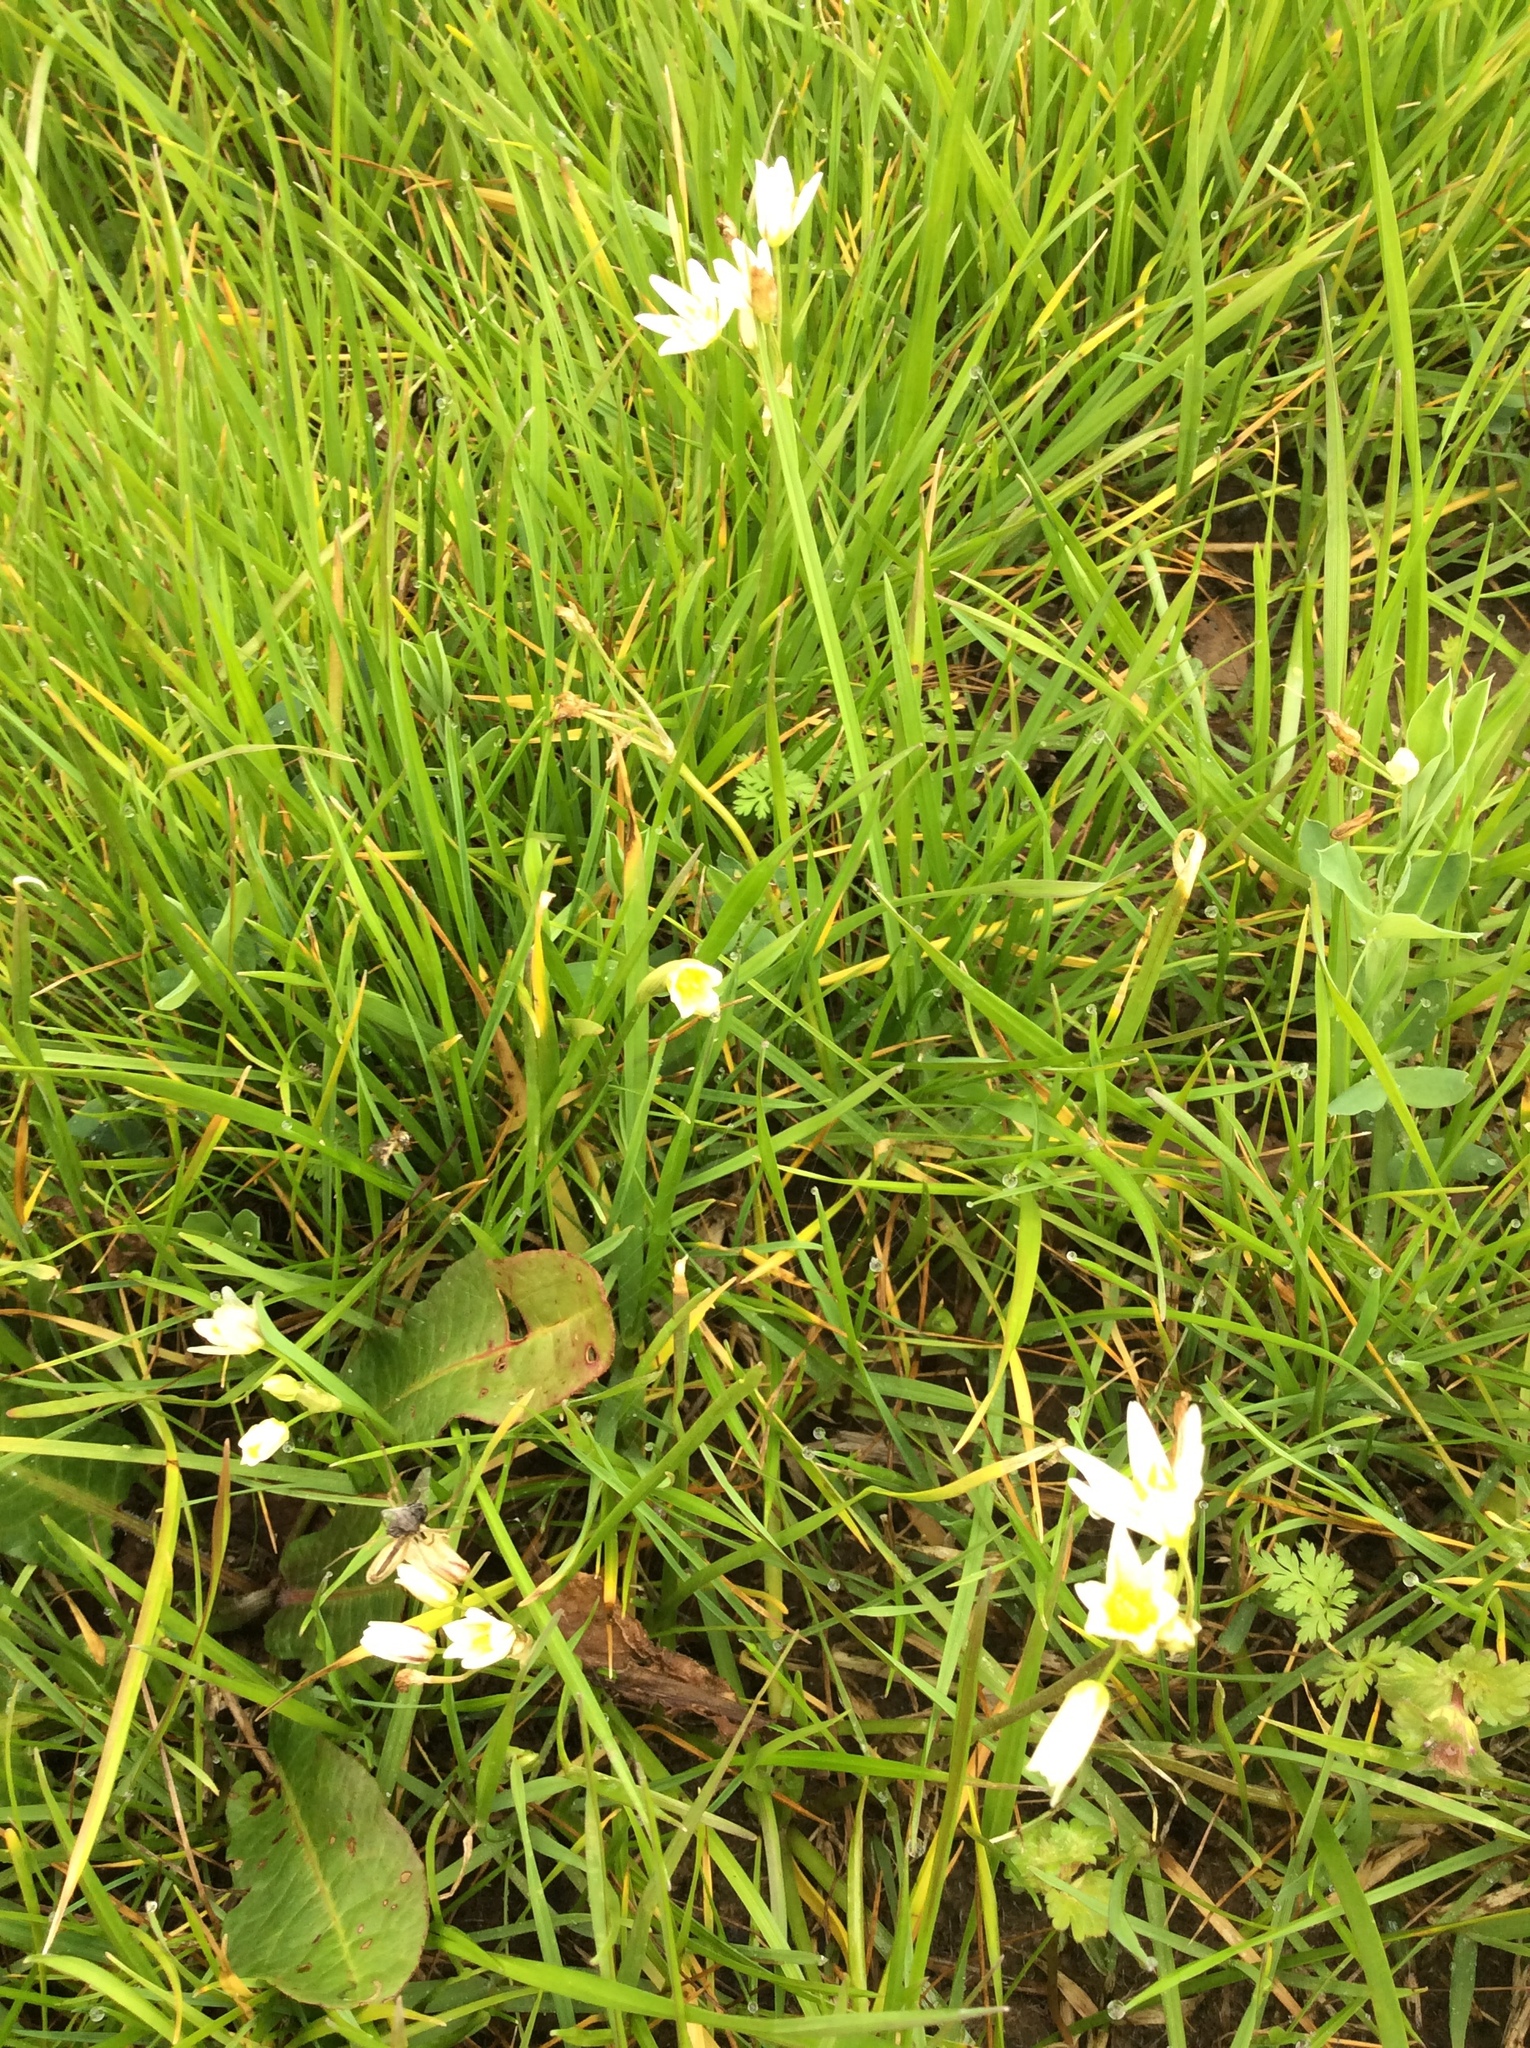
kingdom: Plantae
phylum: Tracheophyta
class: Liliopsida
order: Asparagales
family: Amaryllidaceae
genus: Nothoscordum
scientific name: Nothoscordum bivalve
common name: Crow-poison
